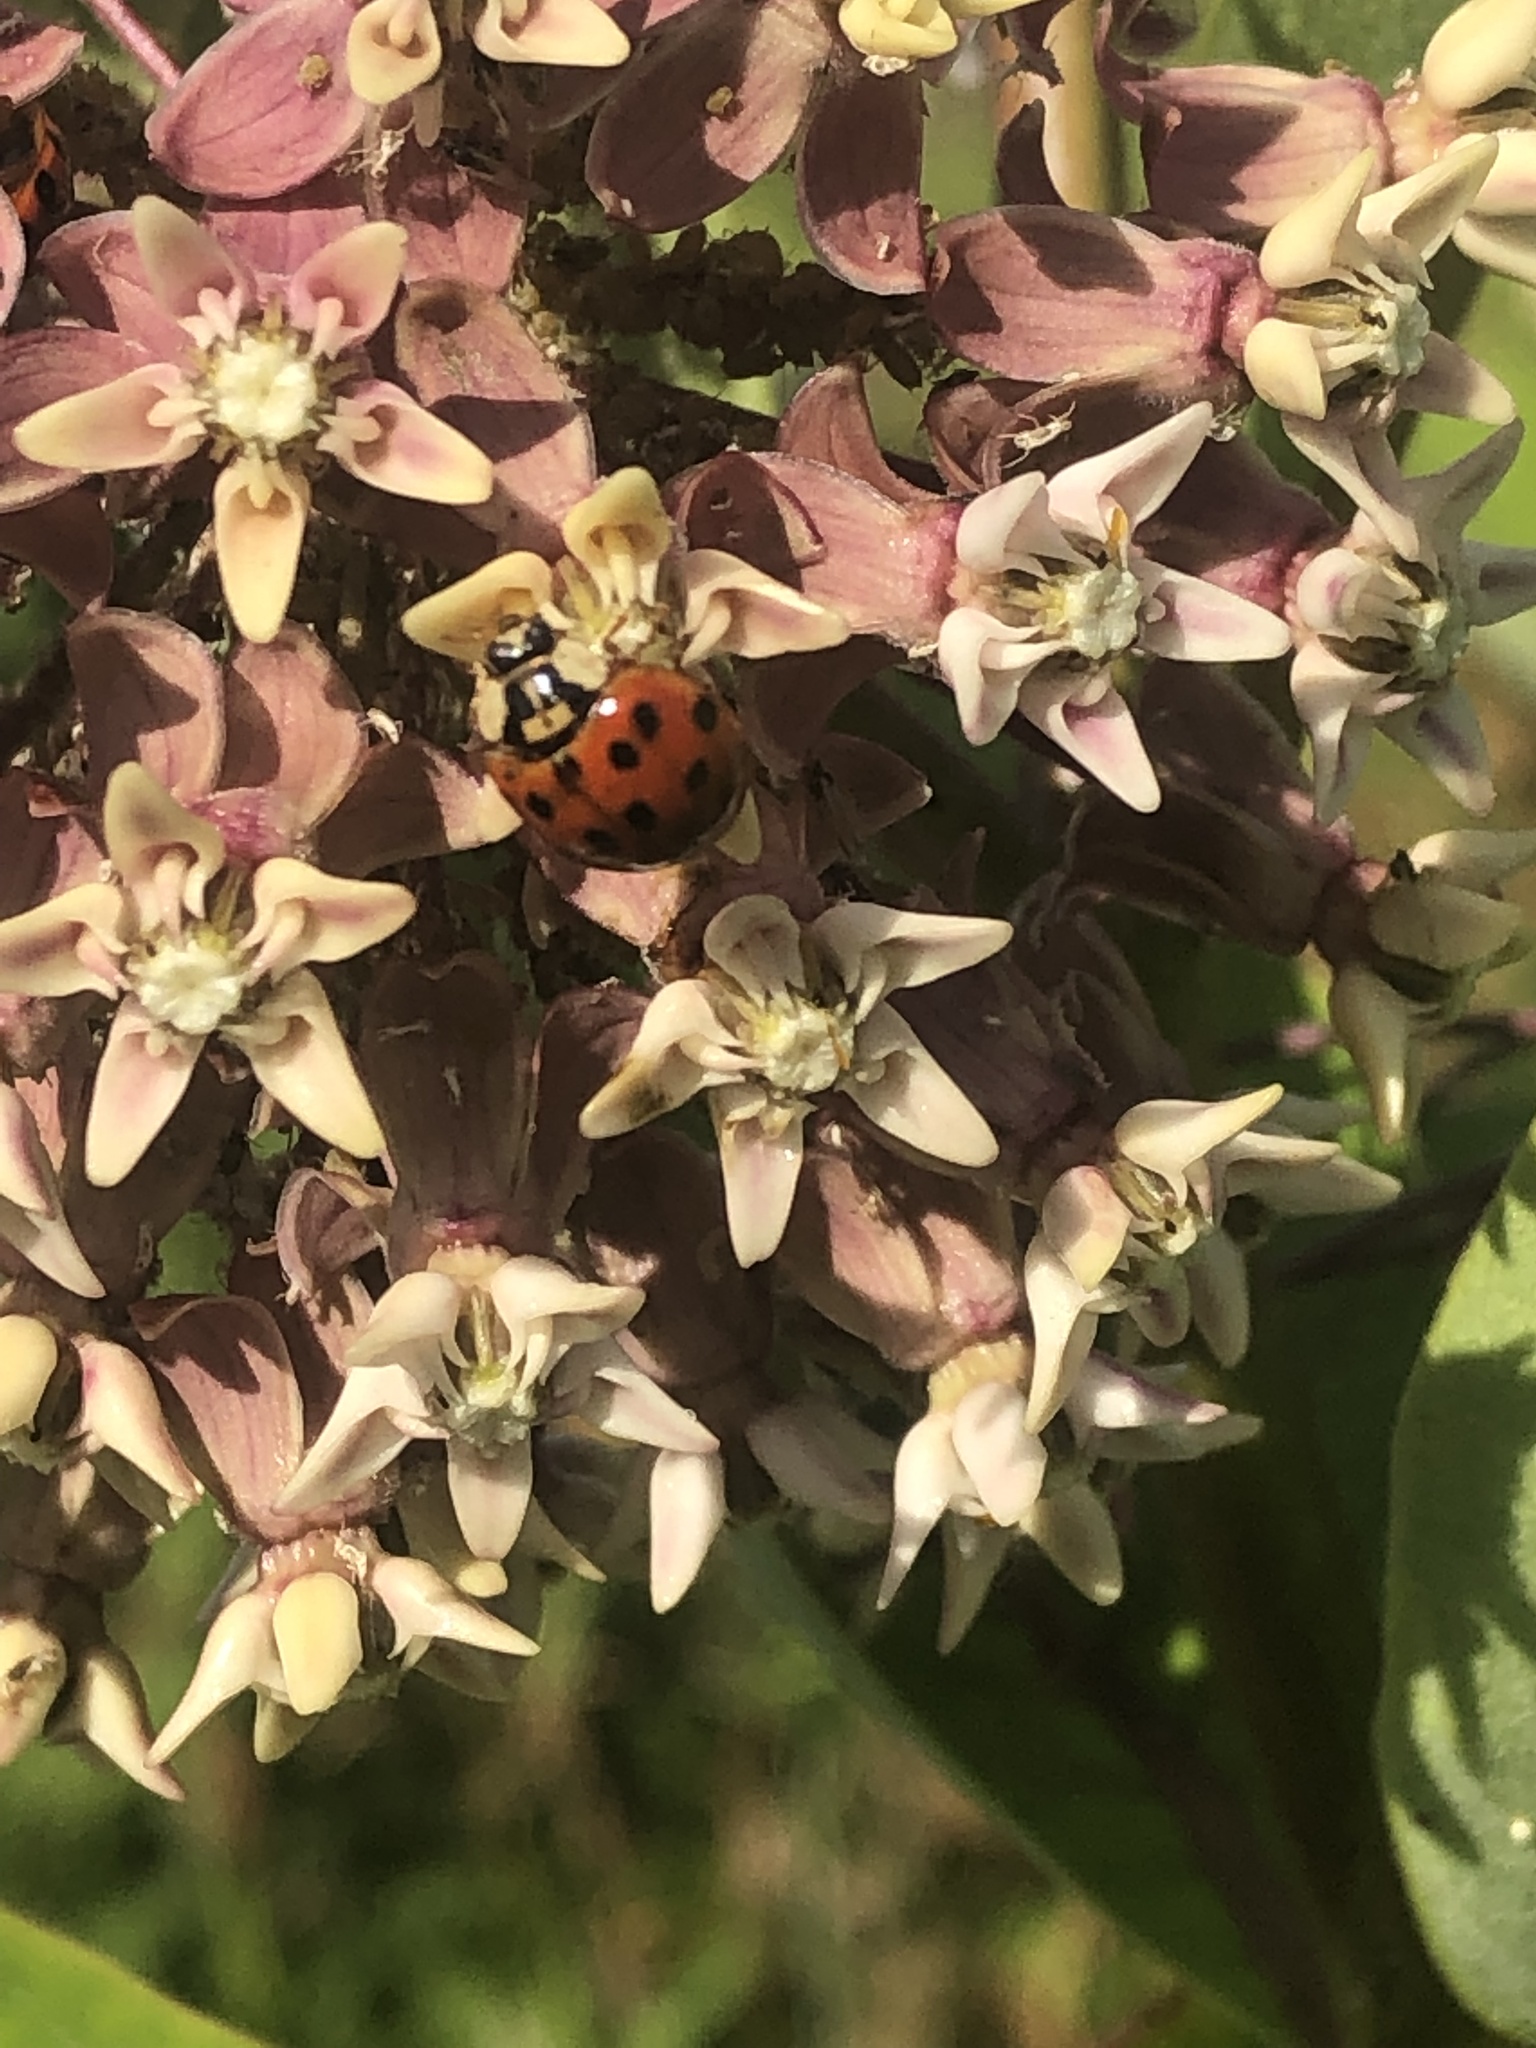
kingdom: Animalia
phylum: Arthropoda
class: Insecta
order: Coleoptera
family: Coccinellidae
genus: Harmonia
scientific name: Harmonia axyridis
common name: Harlequin ladybird
